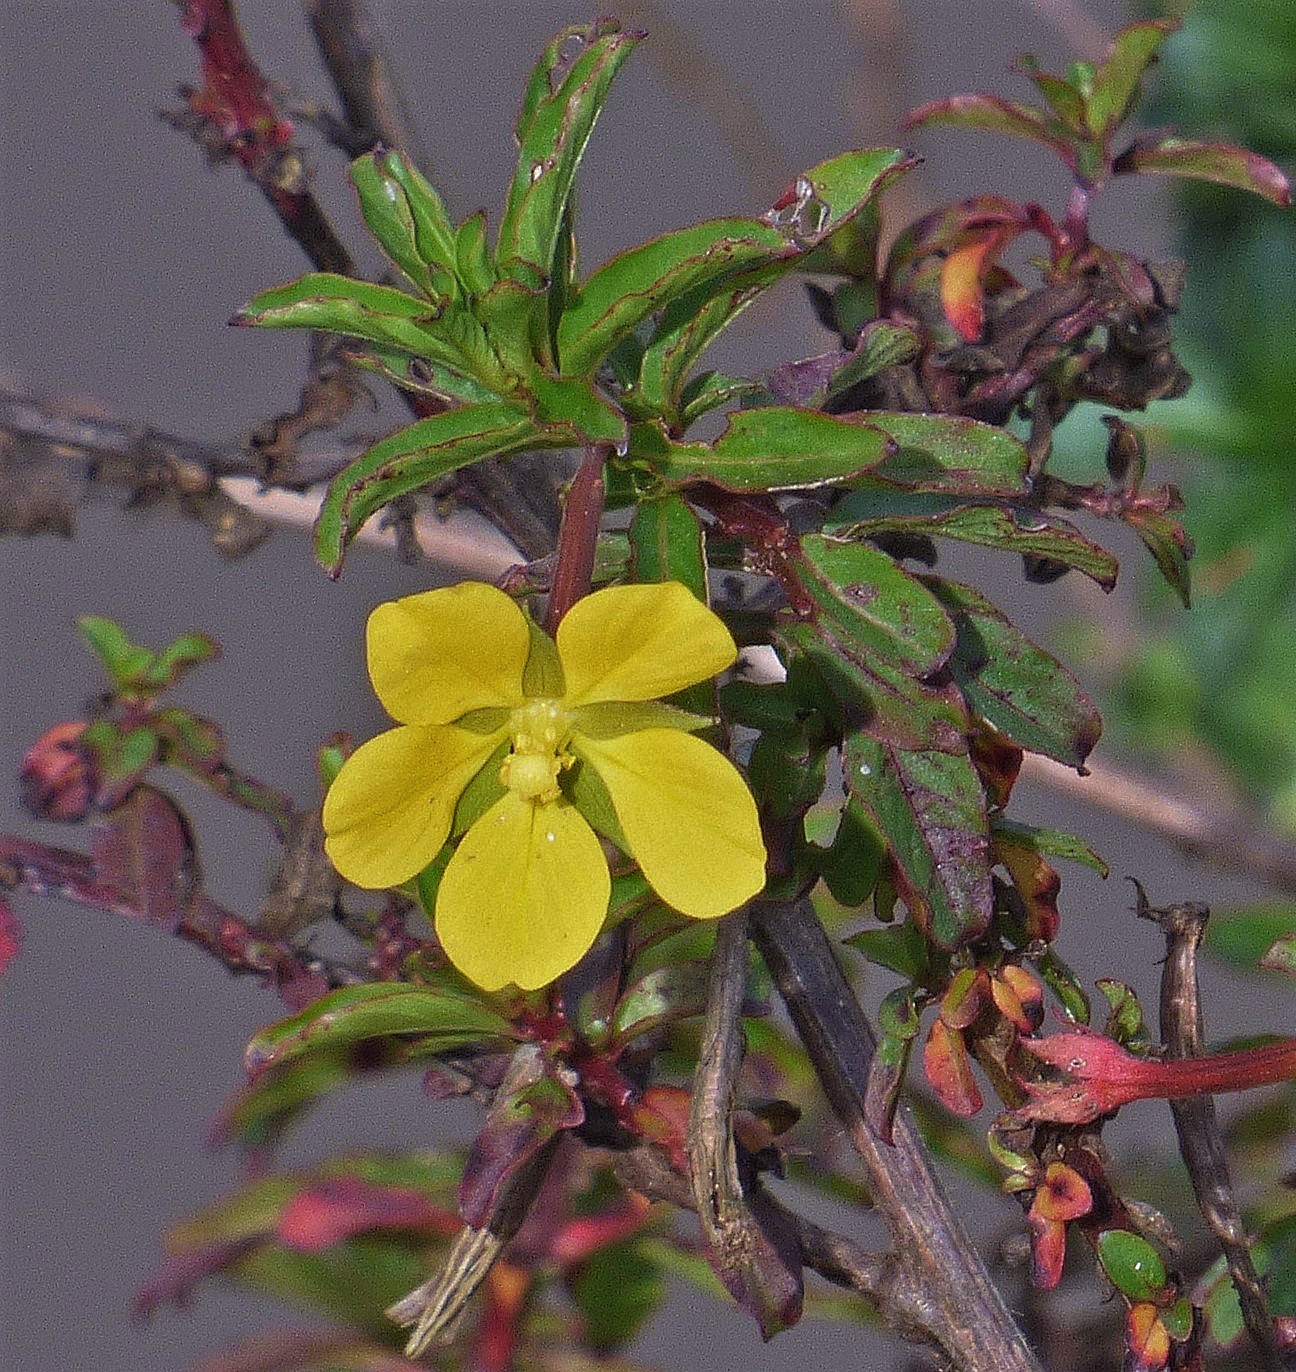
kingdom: Plantae
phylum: Tracheophyta
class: Magnoliopsida
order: Myrtales
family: Onagraceae
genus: Ludwigia
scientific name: Ludwigia leptocarpa
